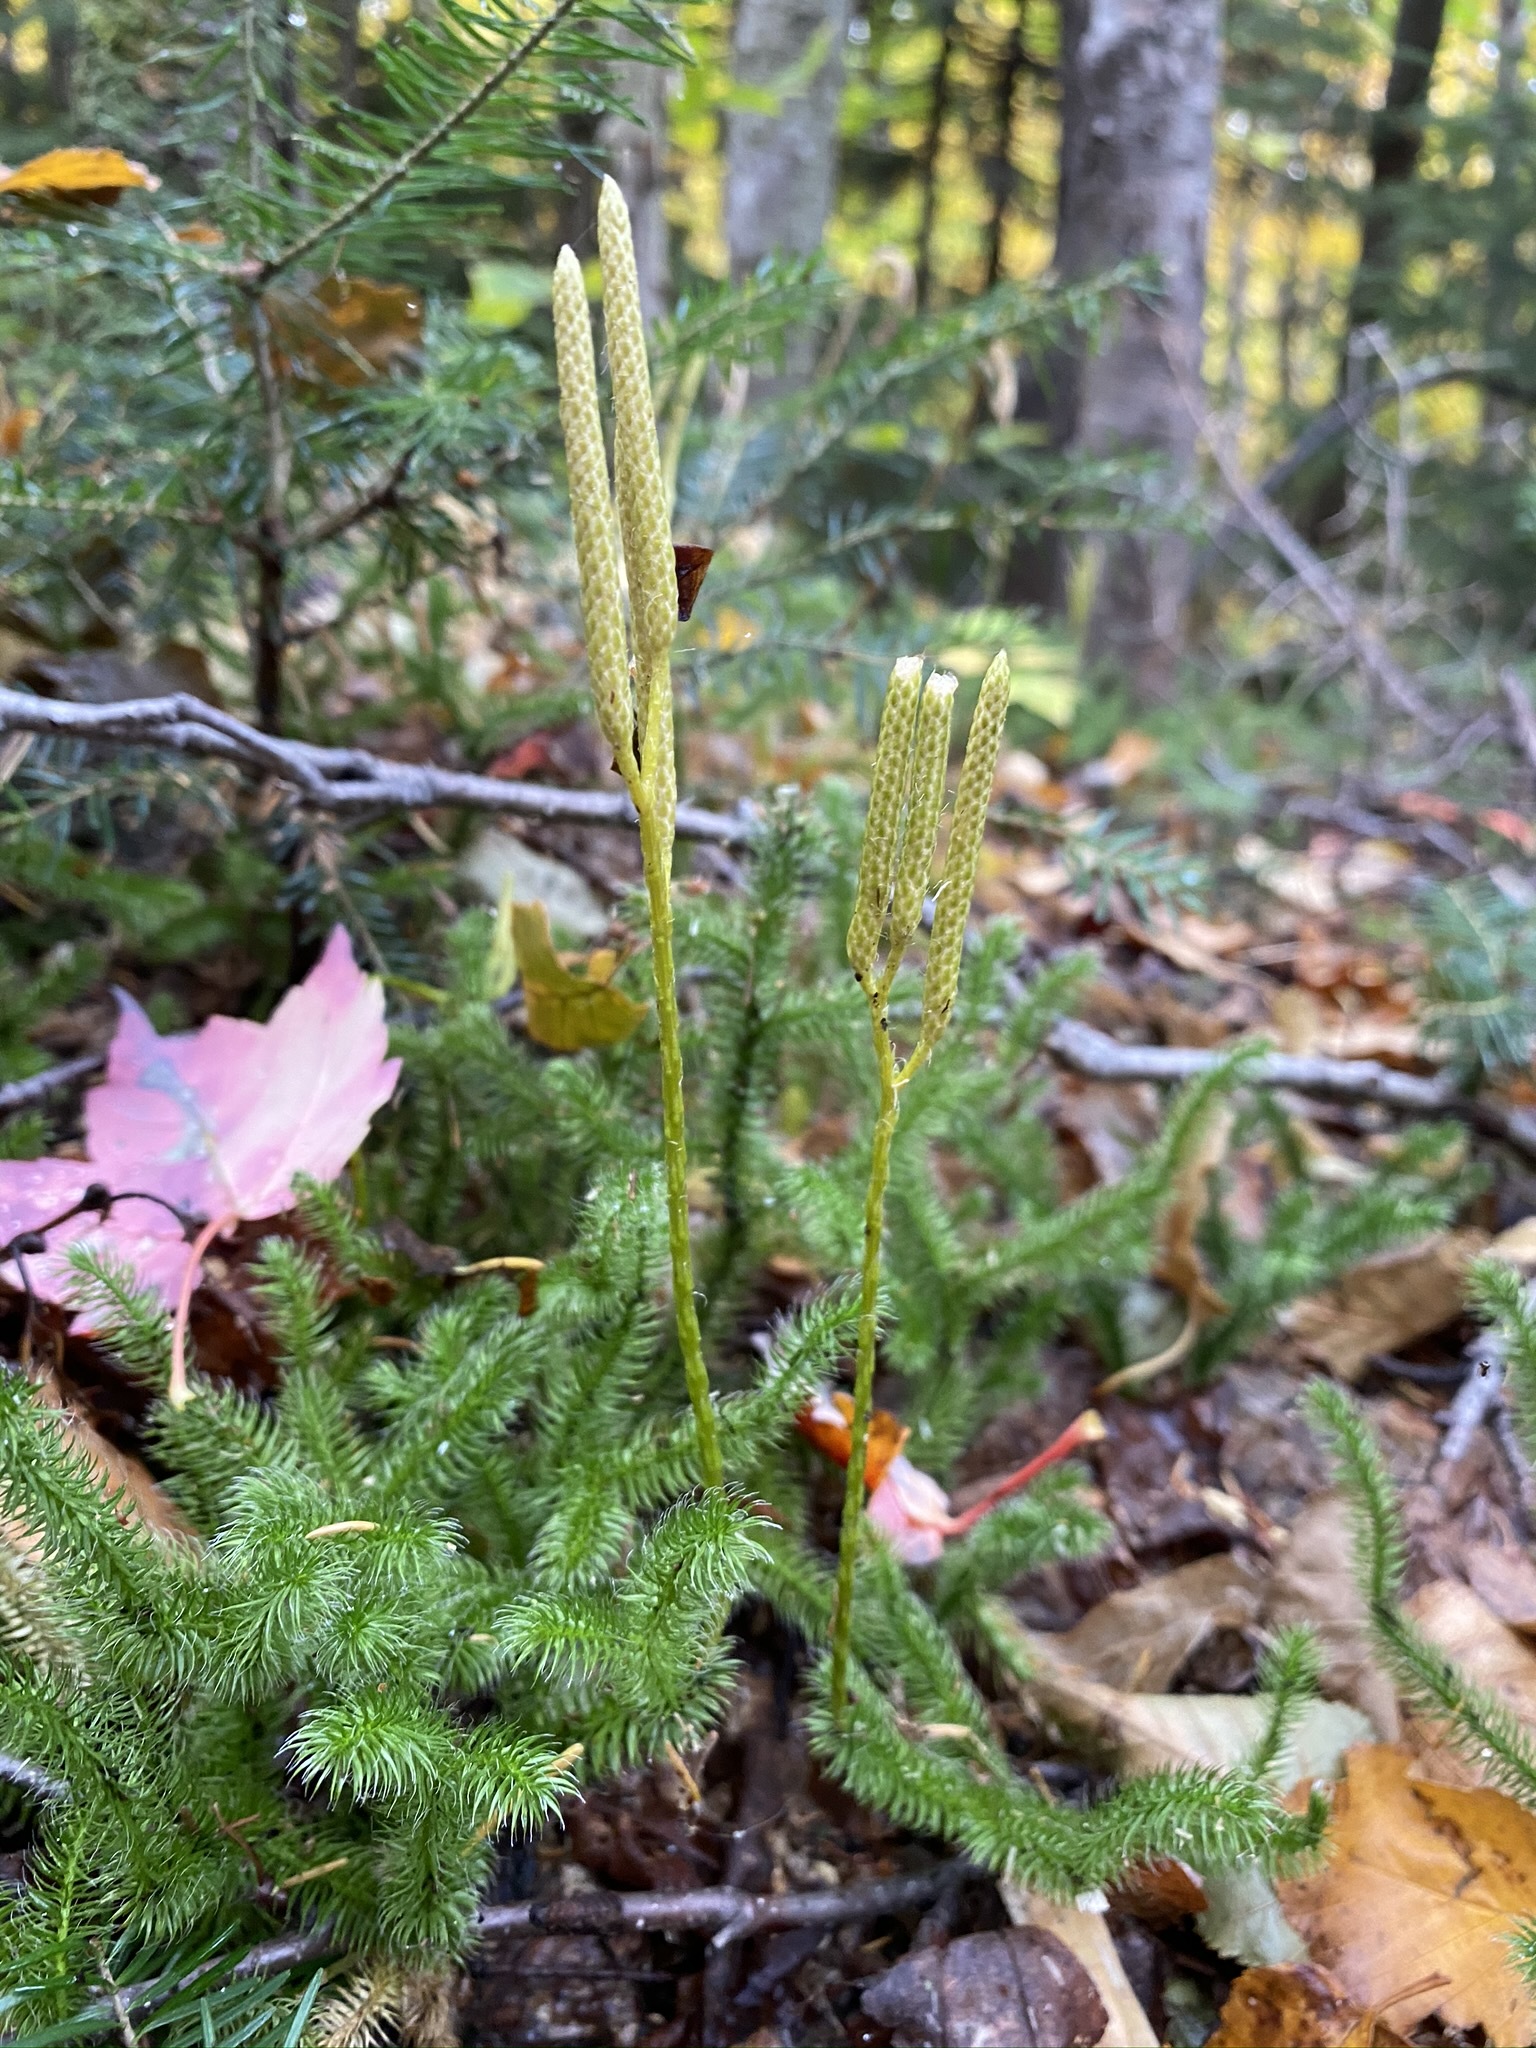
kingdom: Plantae
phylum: Tracheophyta
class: Lycopodiopsida
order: Lycopodiales
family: Lycopodiaceae
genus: Lycopodium
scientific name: Lycopodium clavatum
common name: Stag's-horn clubmoss
